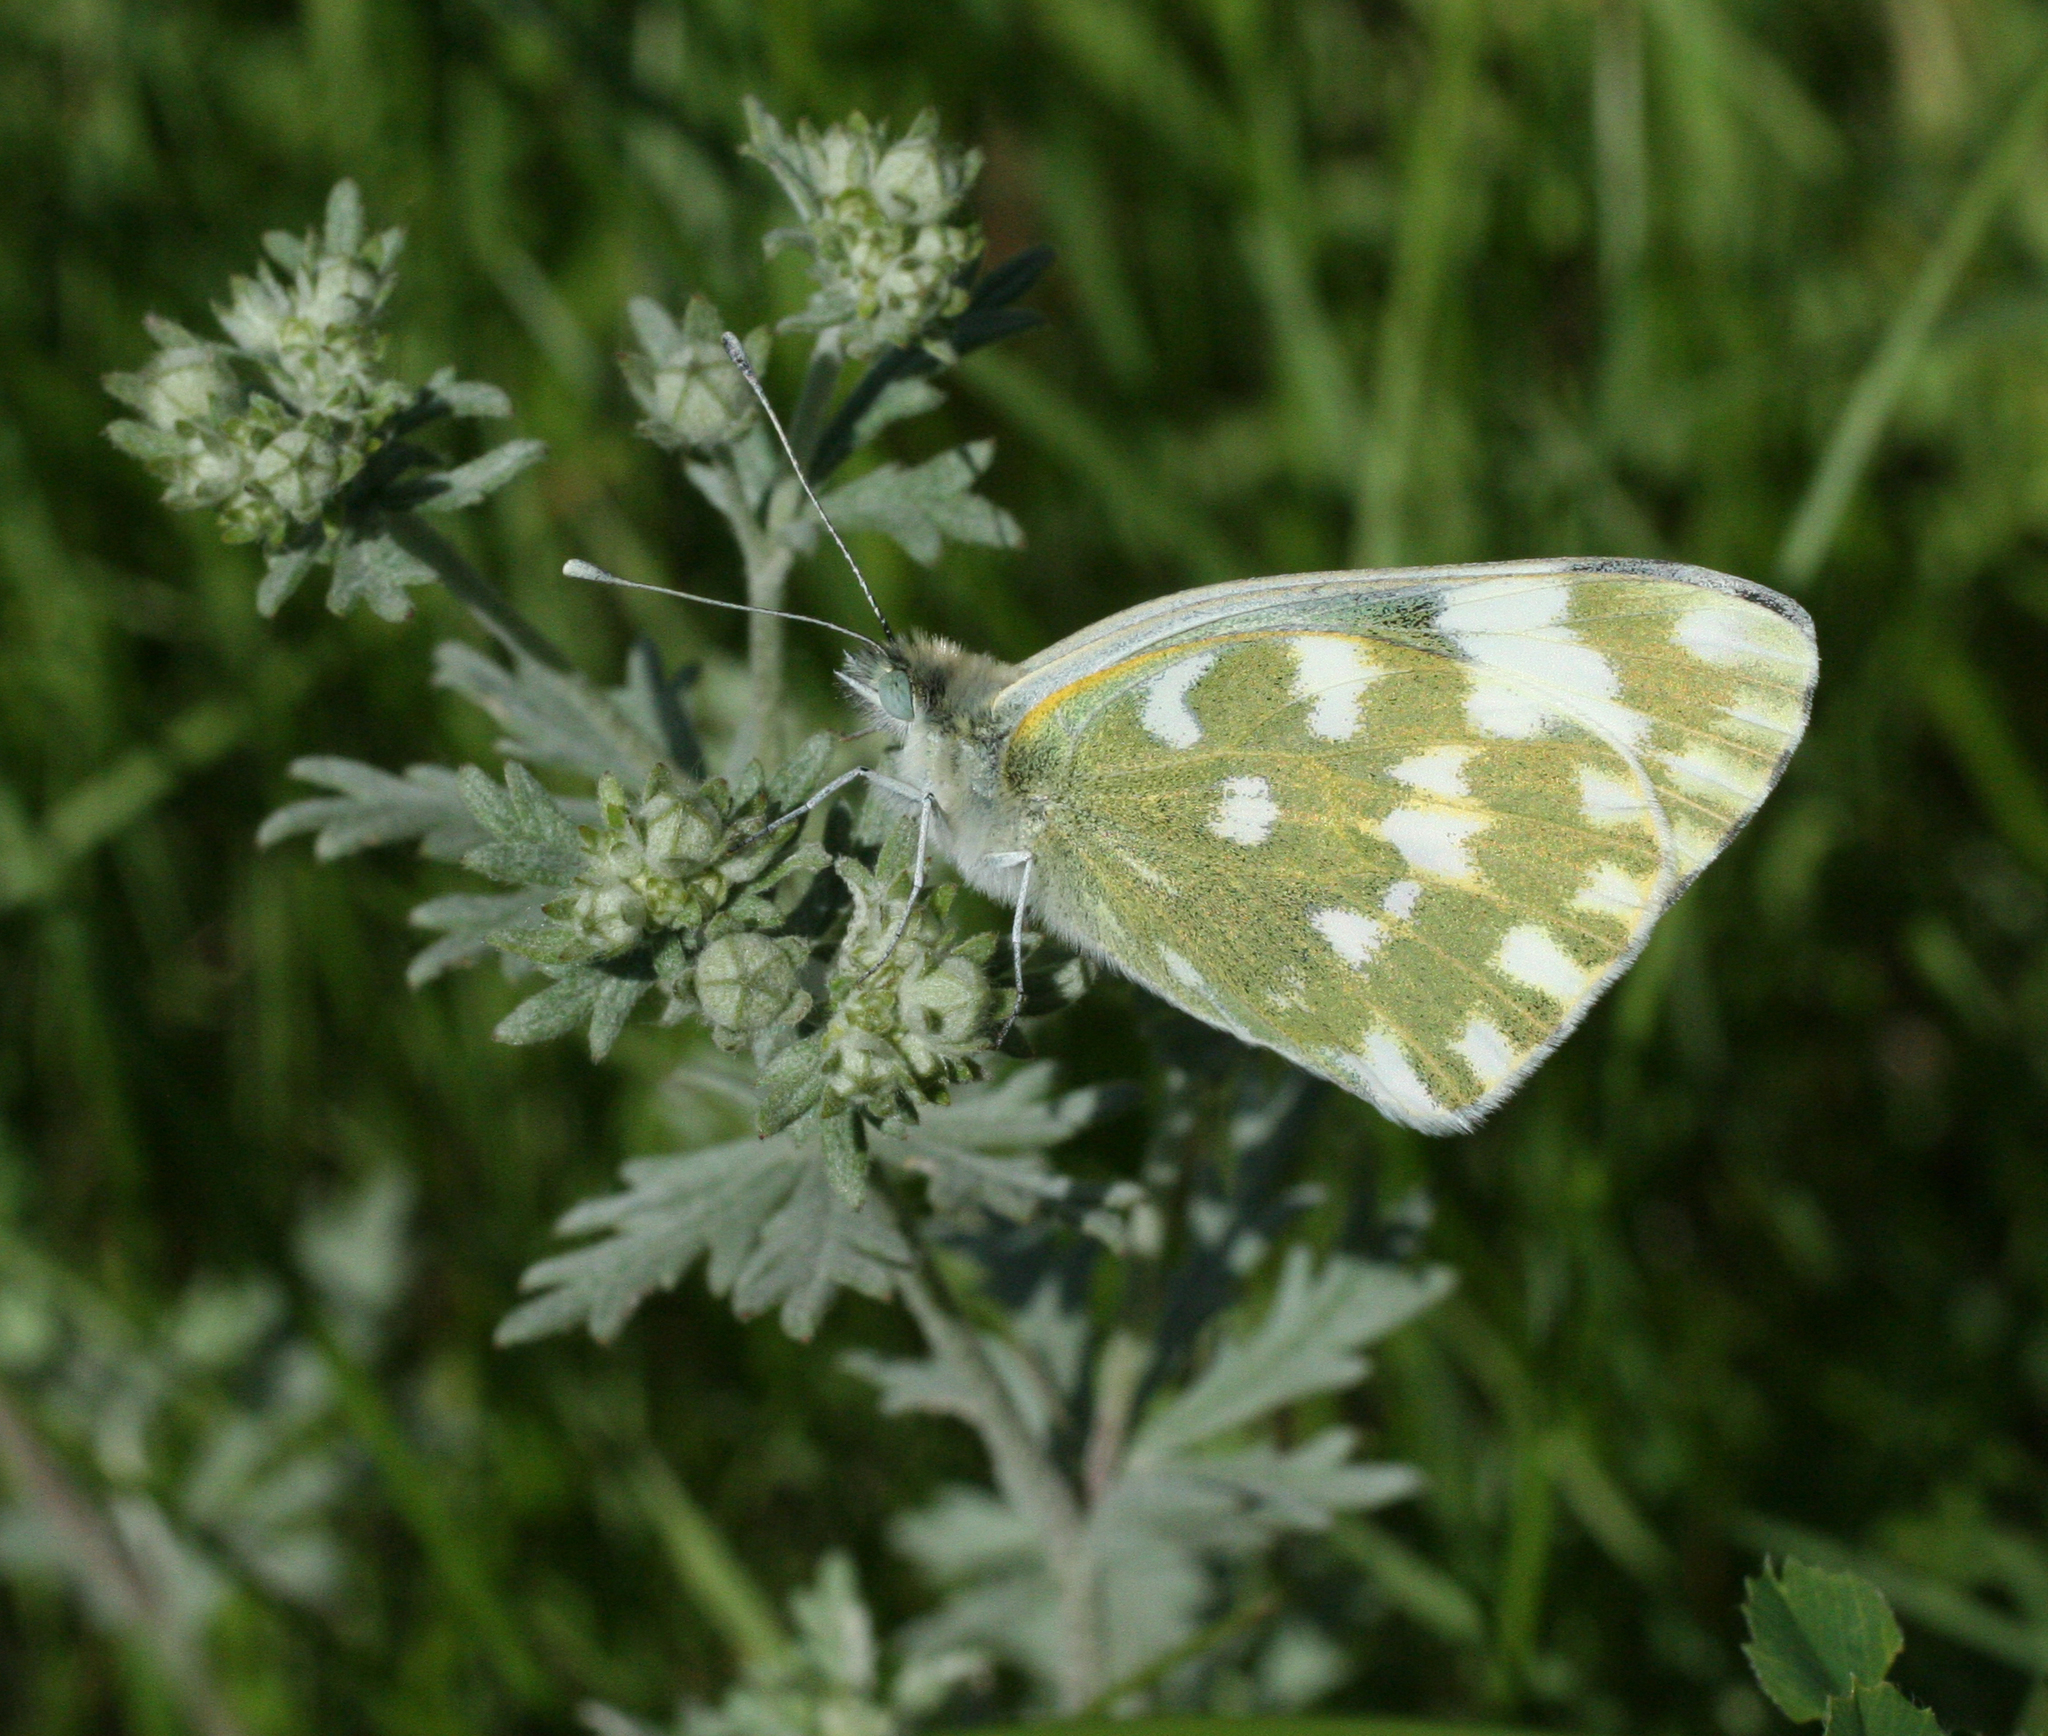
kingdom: Animalia
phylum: Arthropoda
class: Insecta
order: Lepidoptera
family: Pieridae
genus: Pontia
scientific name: Pontia edusa
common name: Eastern bath white
